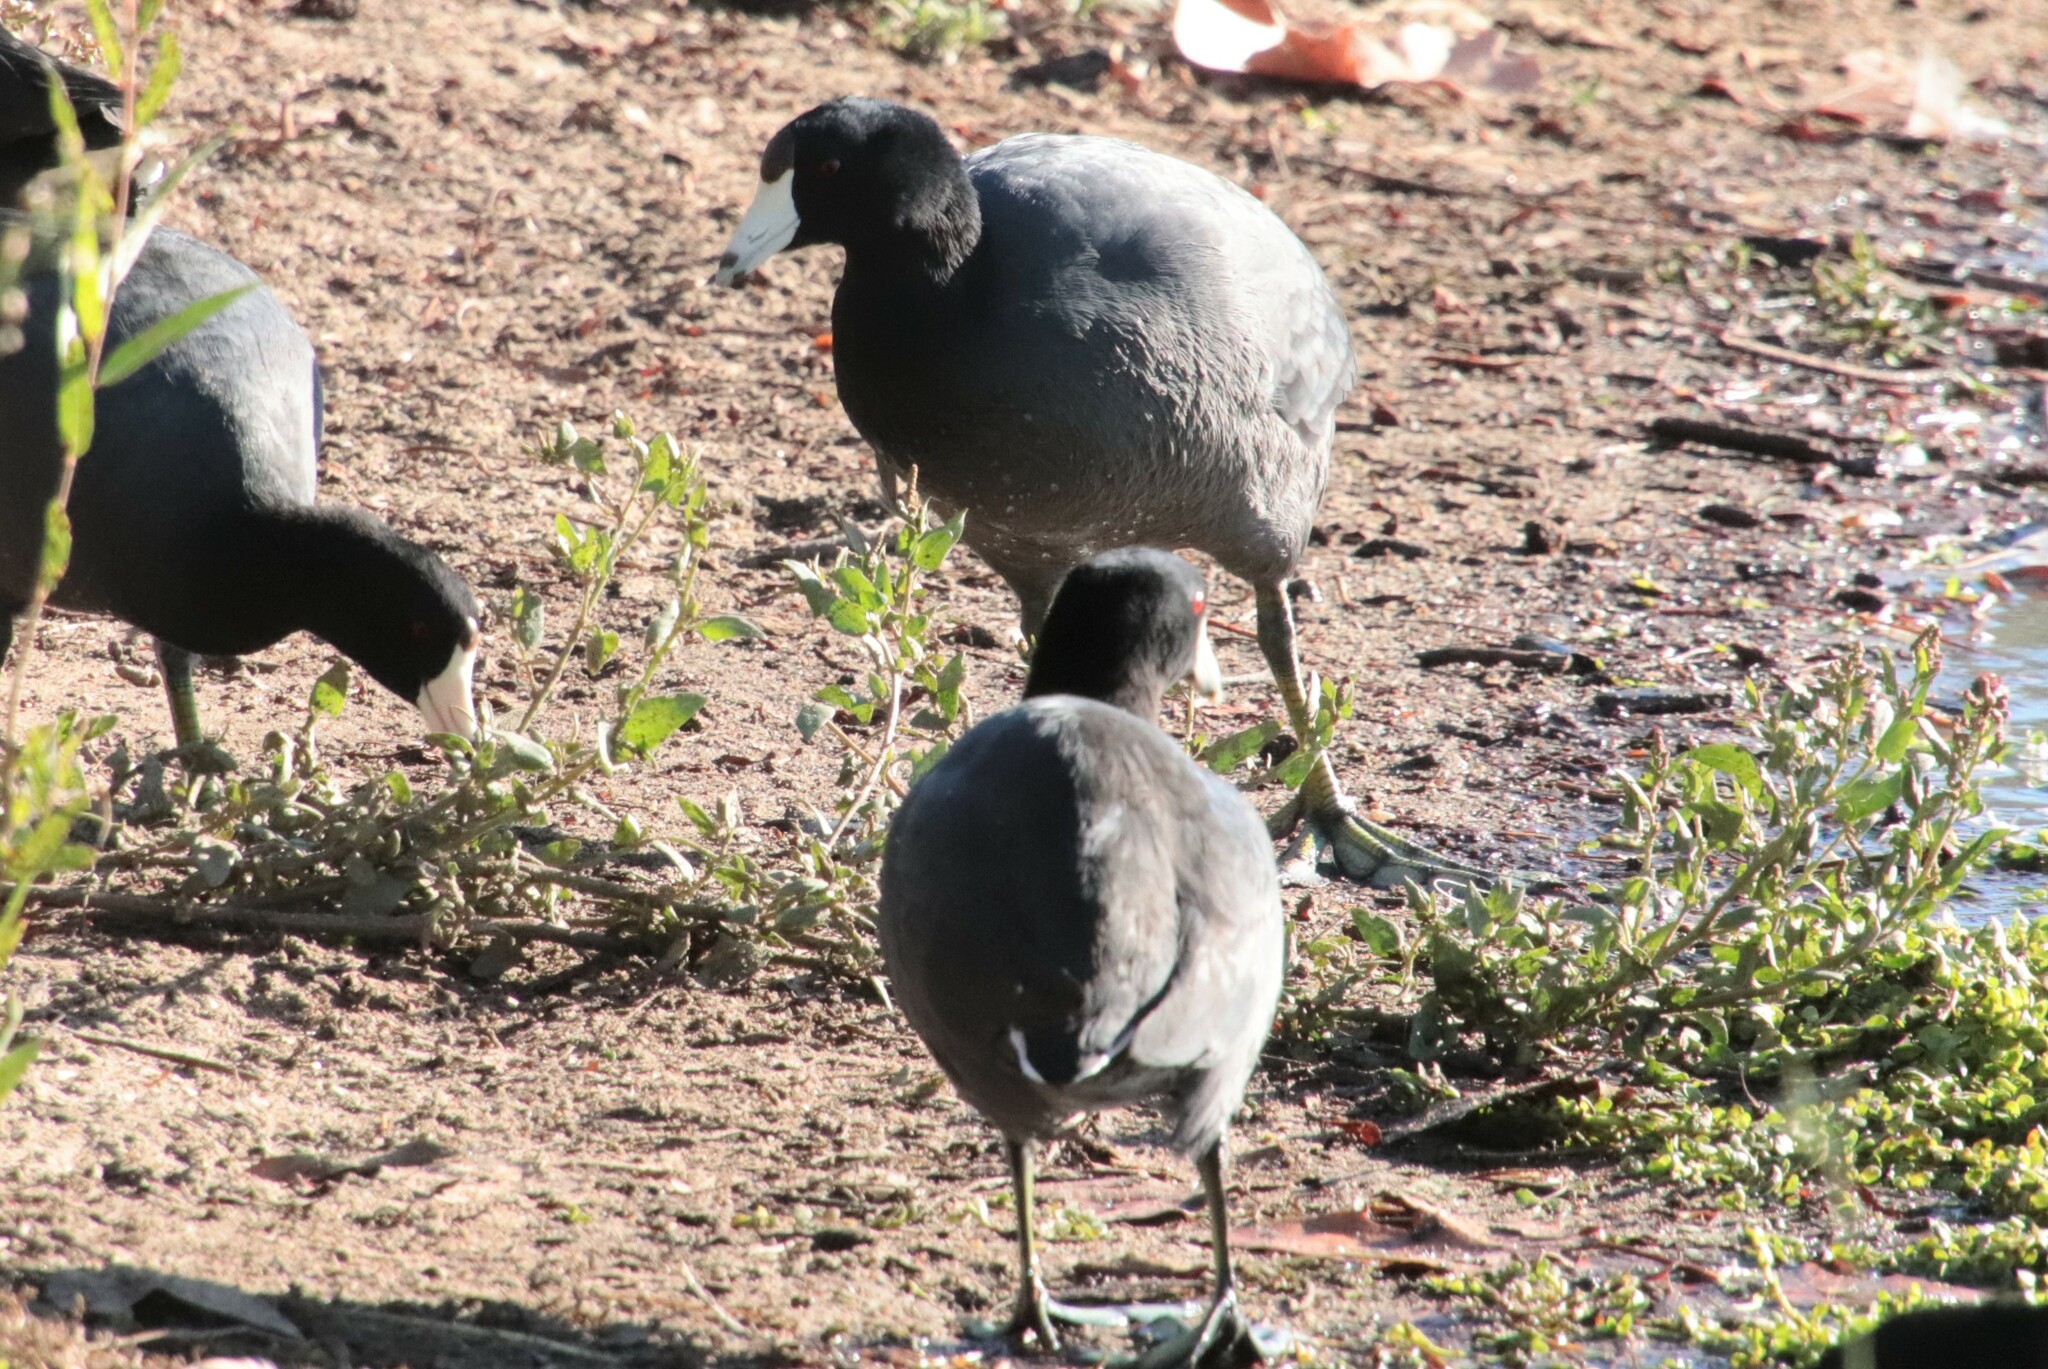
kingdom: Animalia
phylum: Chordata
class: Aves
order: Gruiformes
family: Rallidae
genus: Fulica
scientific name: Fulica americana
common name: American coot
